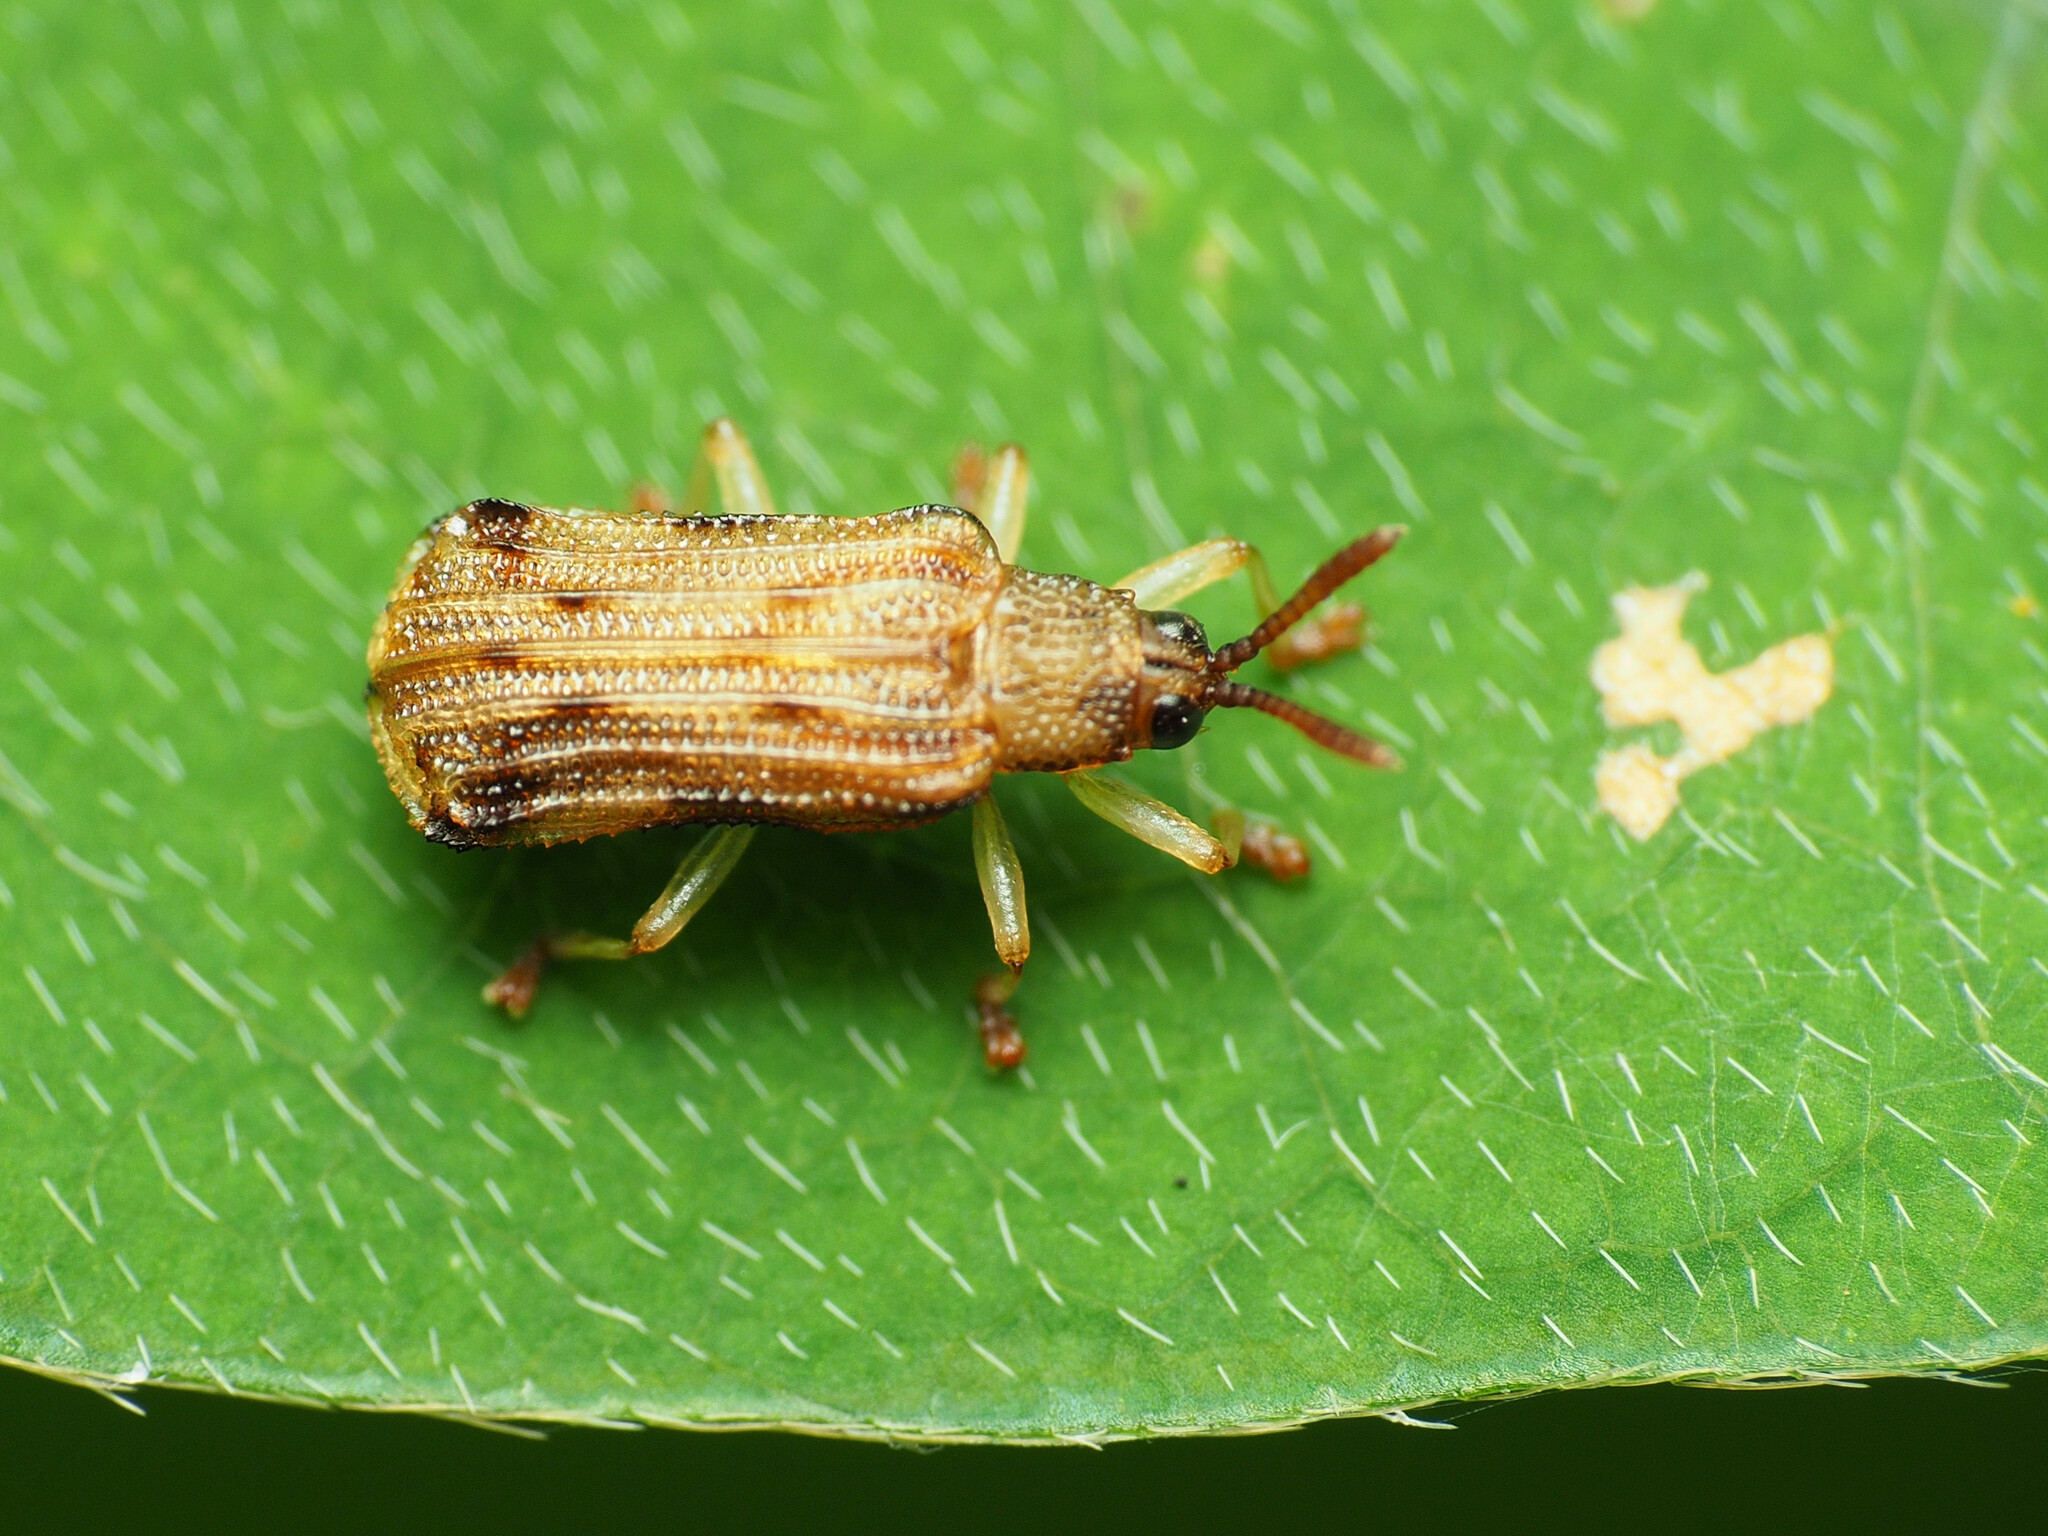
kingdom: Animalia
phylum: Arthropoda
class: Insecta
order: Coleoptera
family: Chrysomelidae
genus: Sumitrosis
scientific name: Sumitrosis rosea
